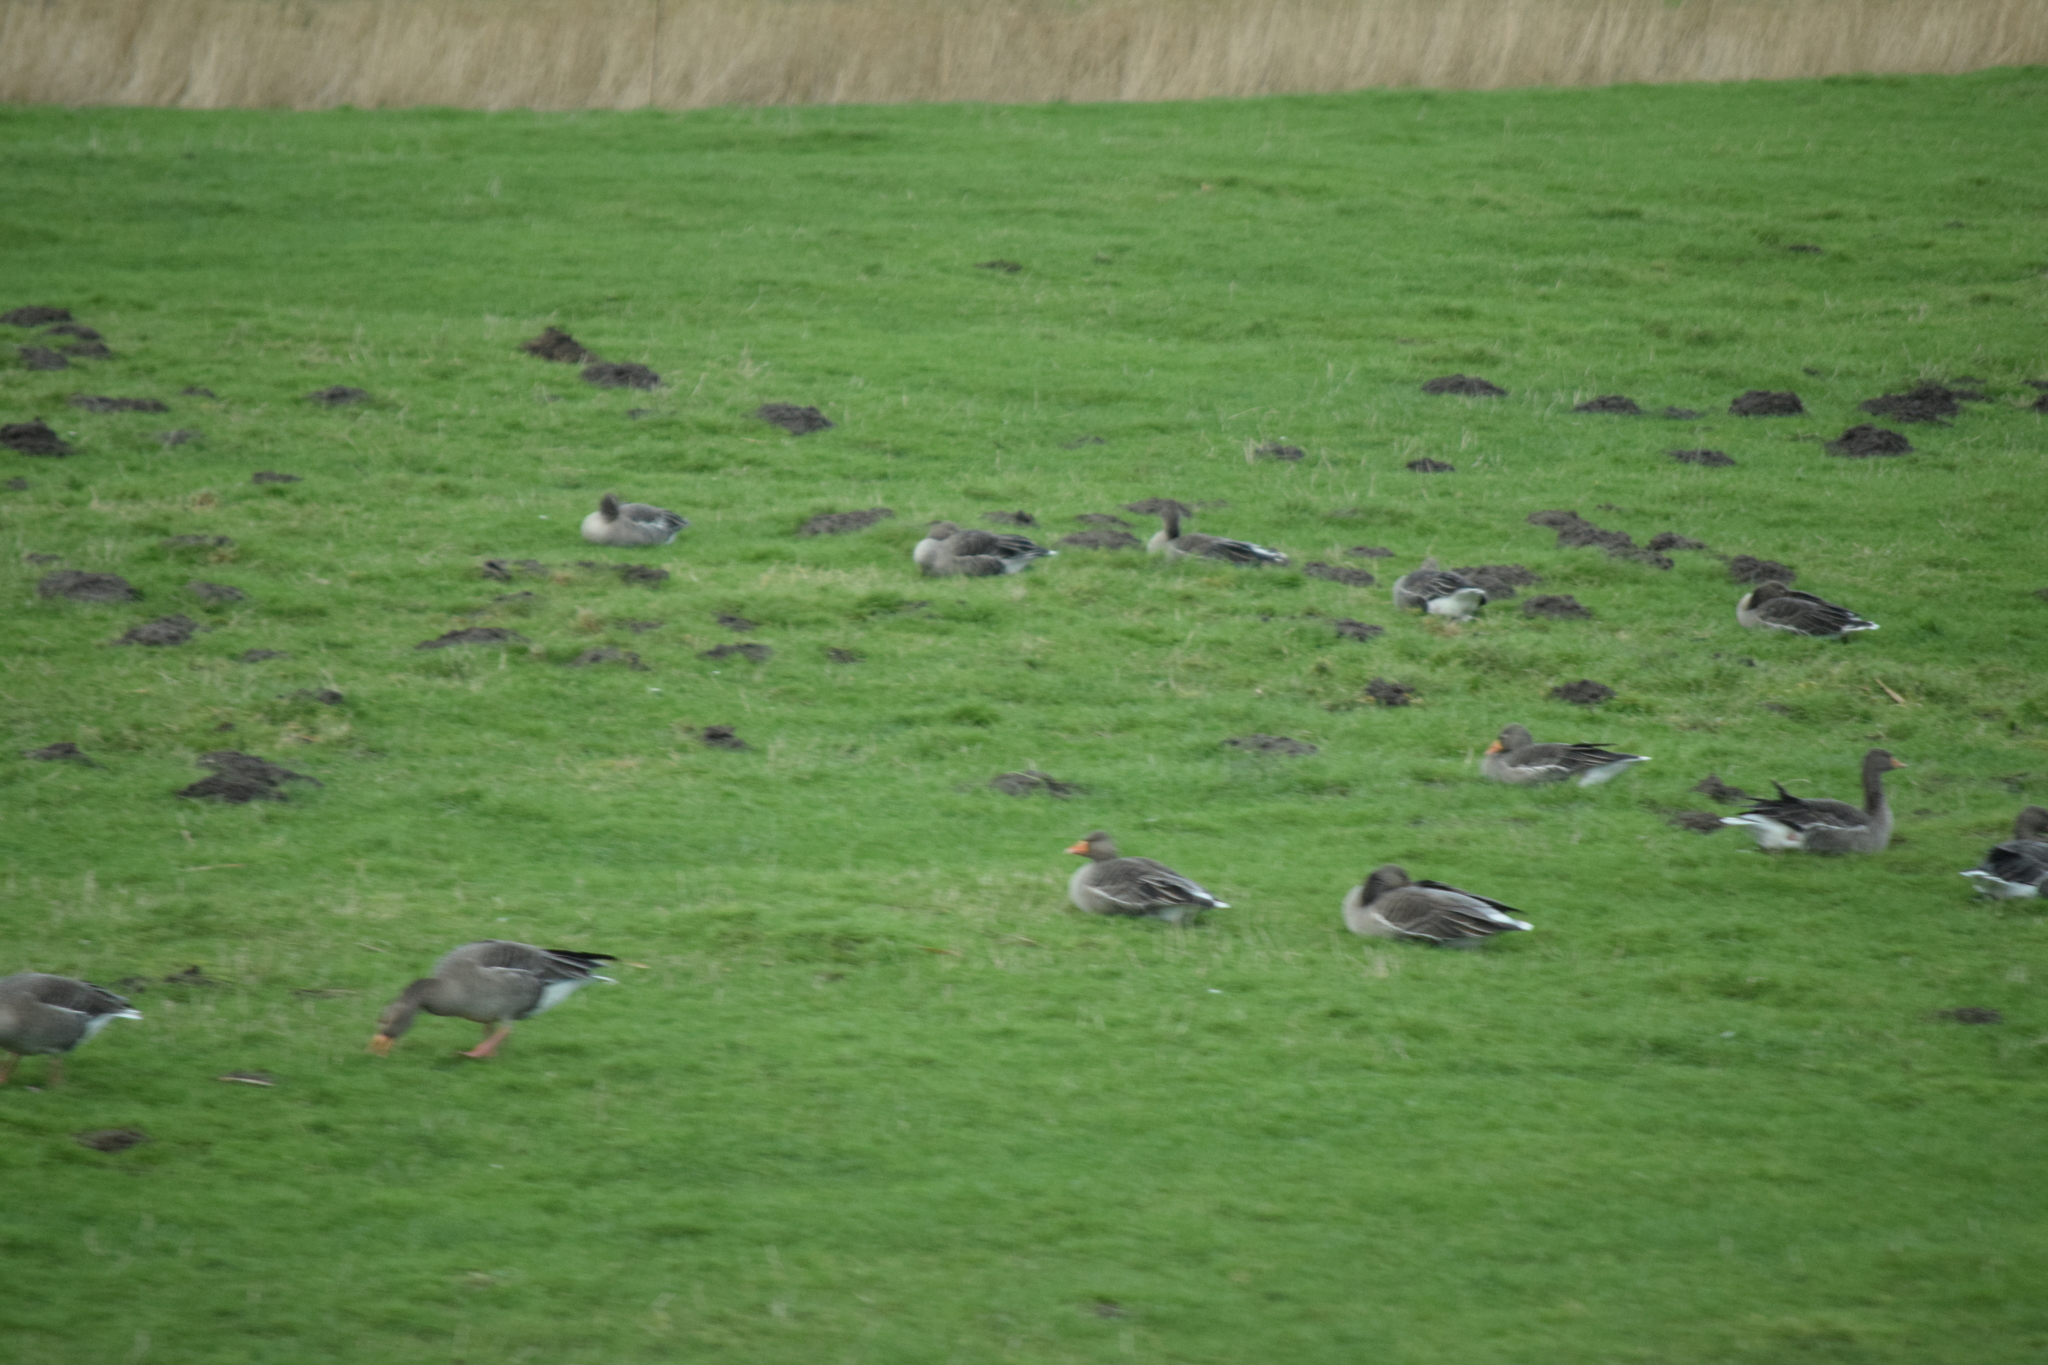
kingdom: Animalia
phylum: Chordata
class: Aves
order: Anseriformes
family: Anatidae
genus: Anser
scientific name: Anser anser
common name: Greylag goose
